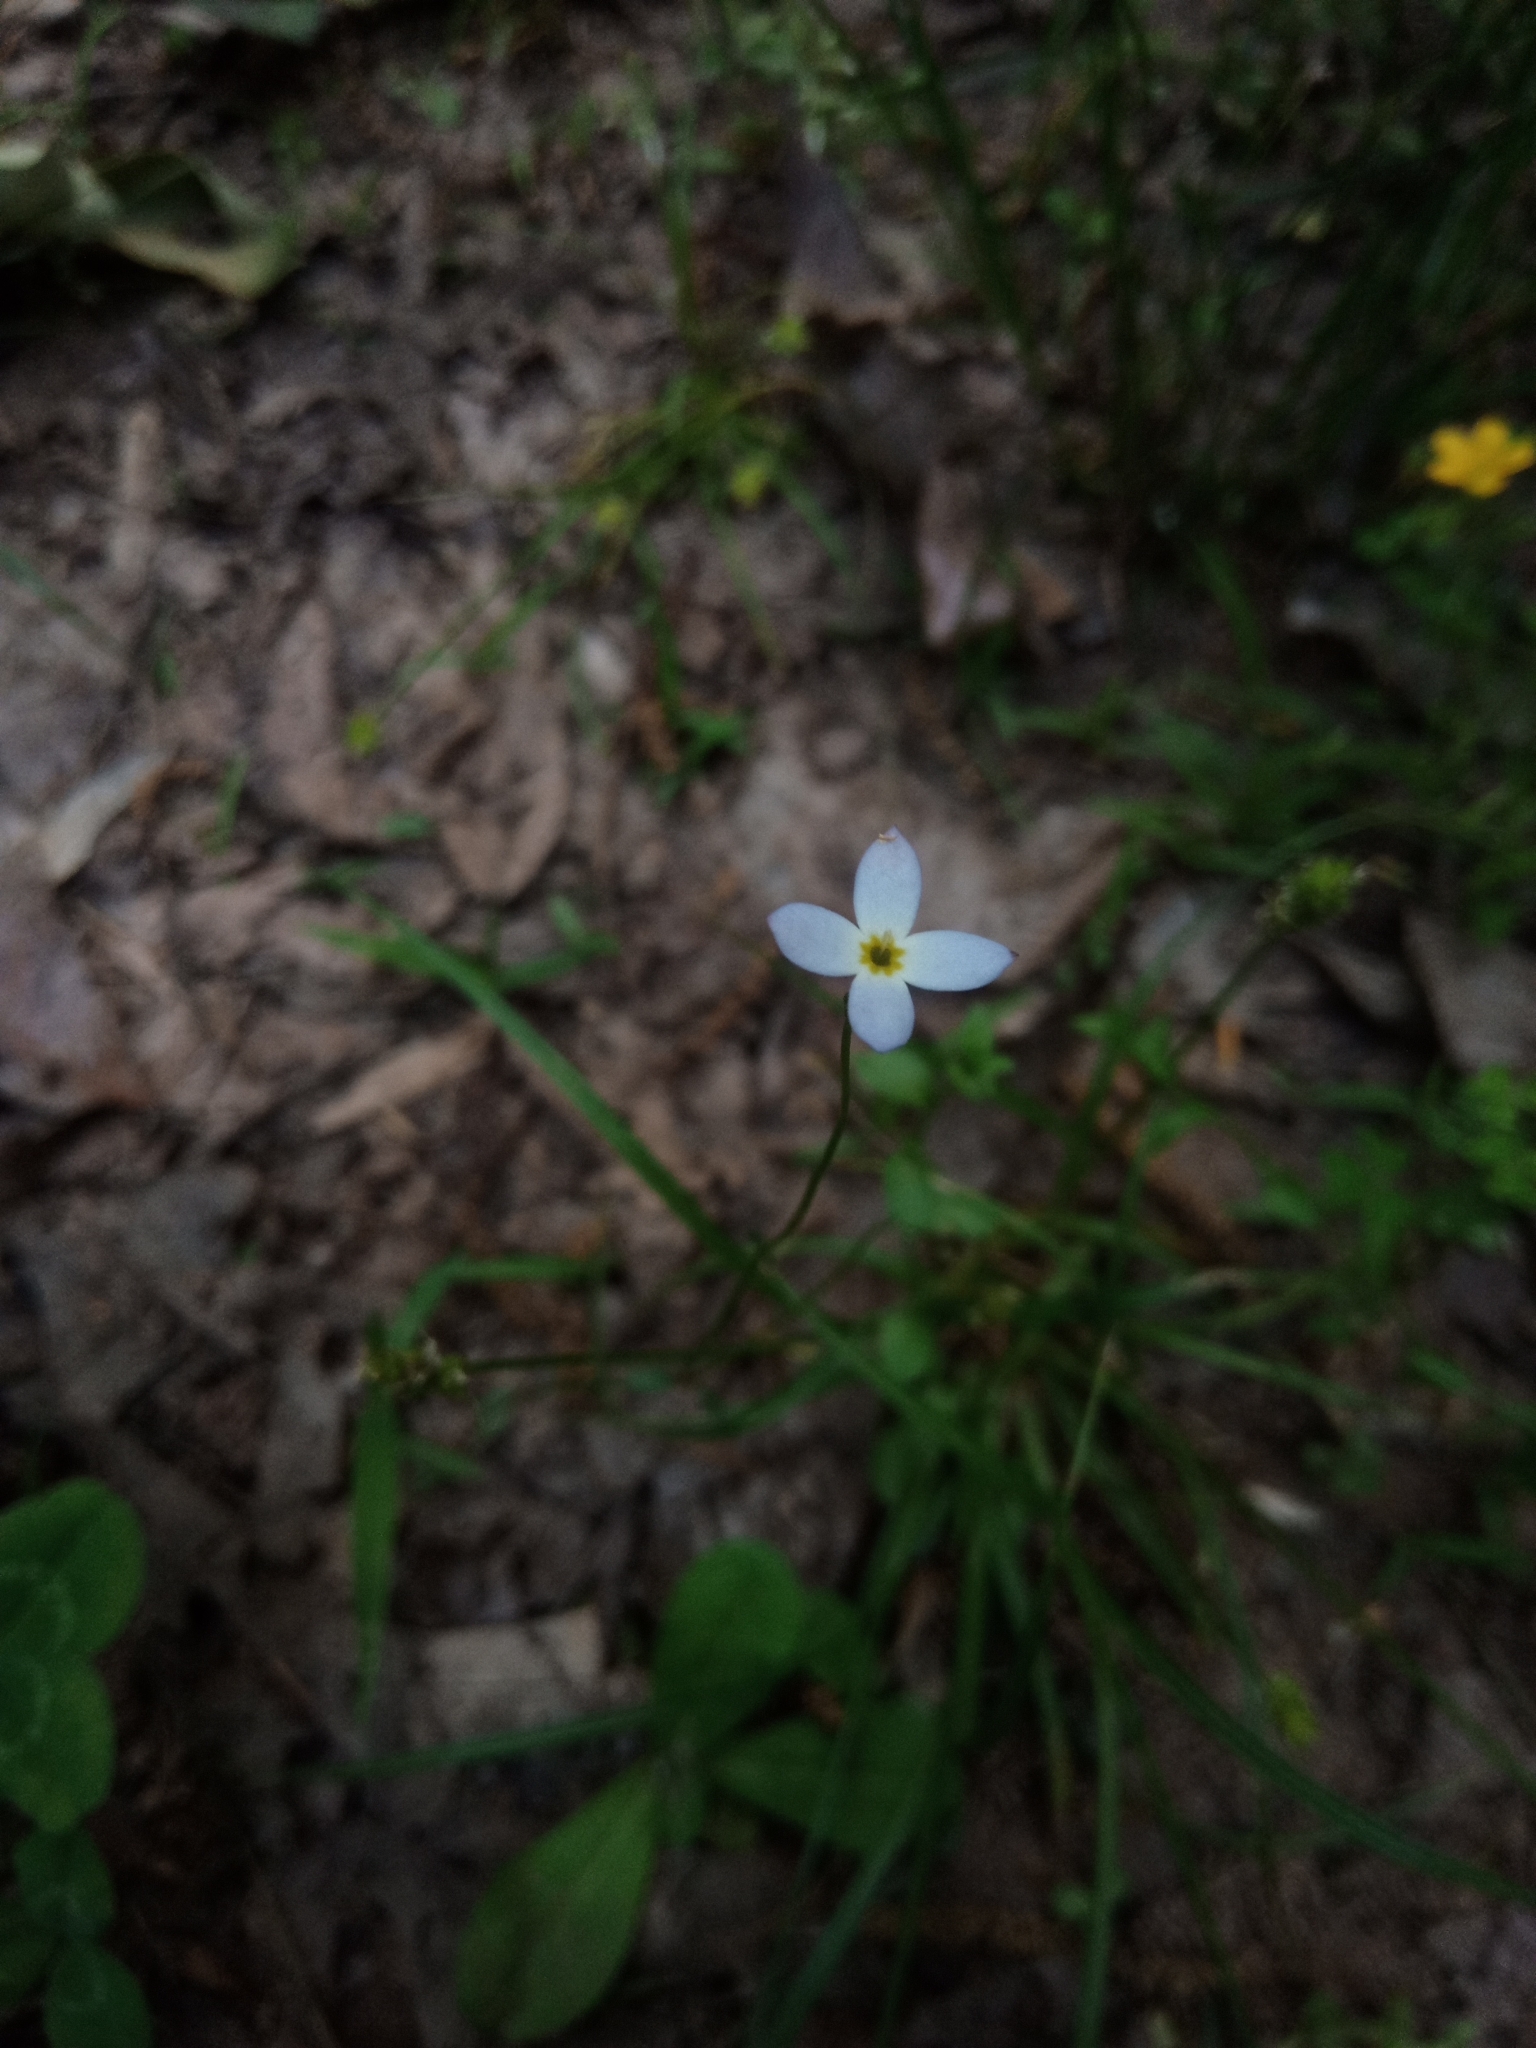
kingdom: Plantae
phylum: Tracheophyta
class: Magnoliopsida
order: Gentianales
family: Rubiaceae
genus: Houstonia
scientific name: Houstonia caerulea
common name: Bluets
